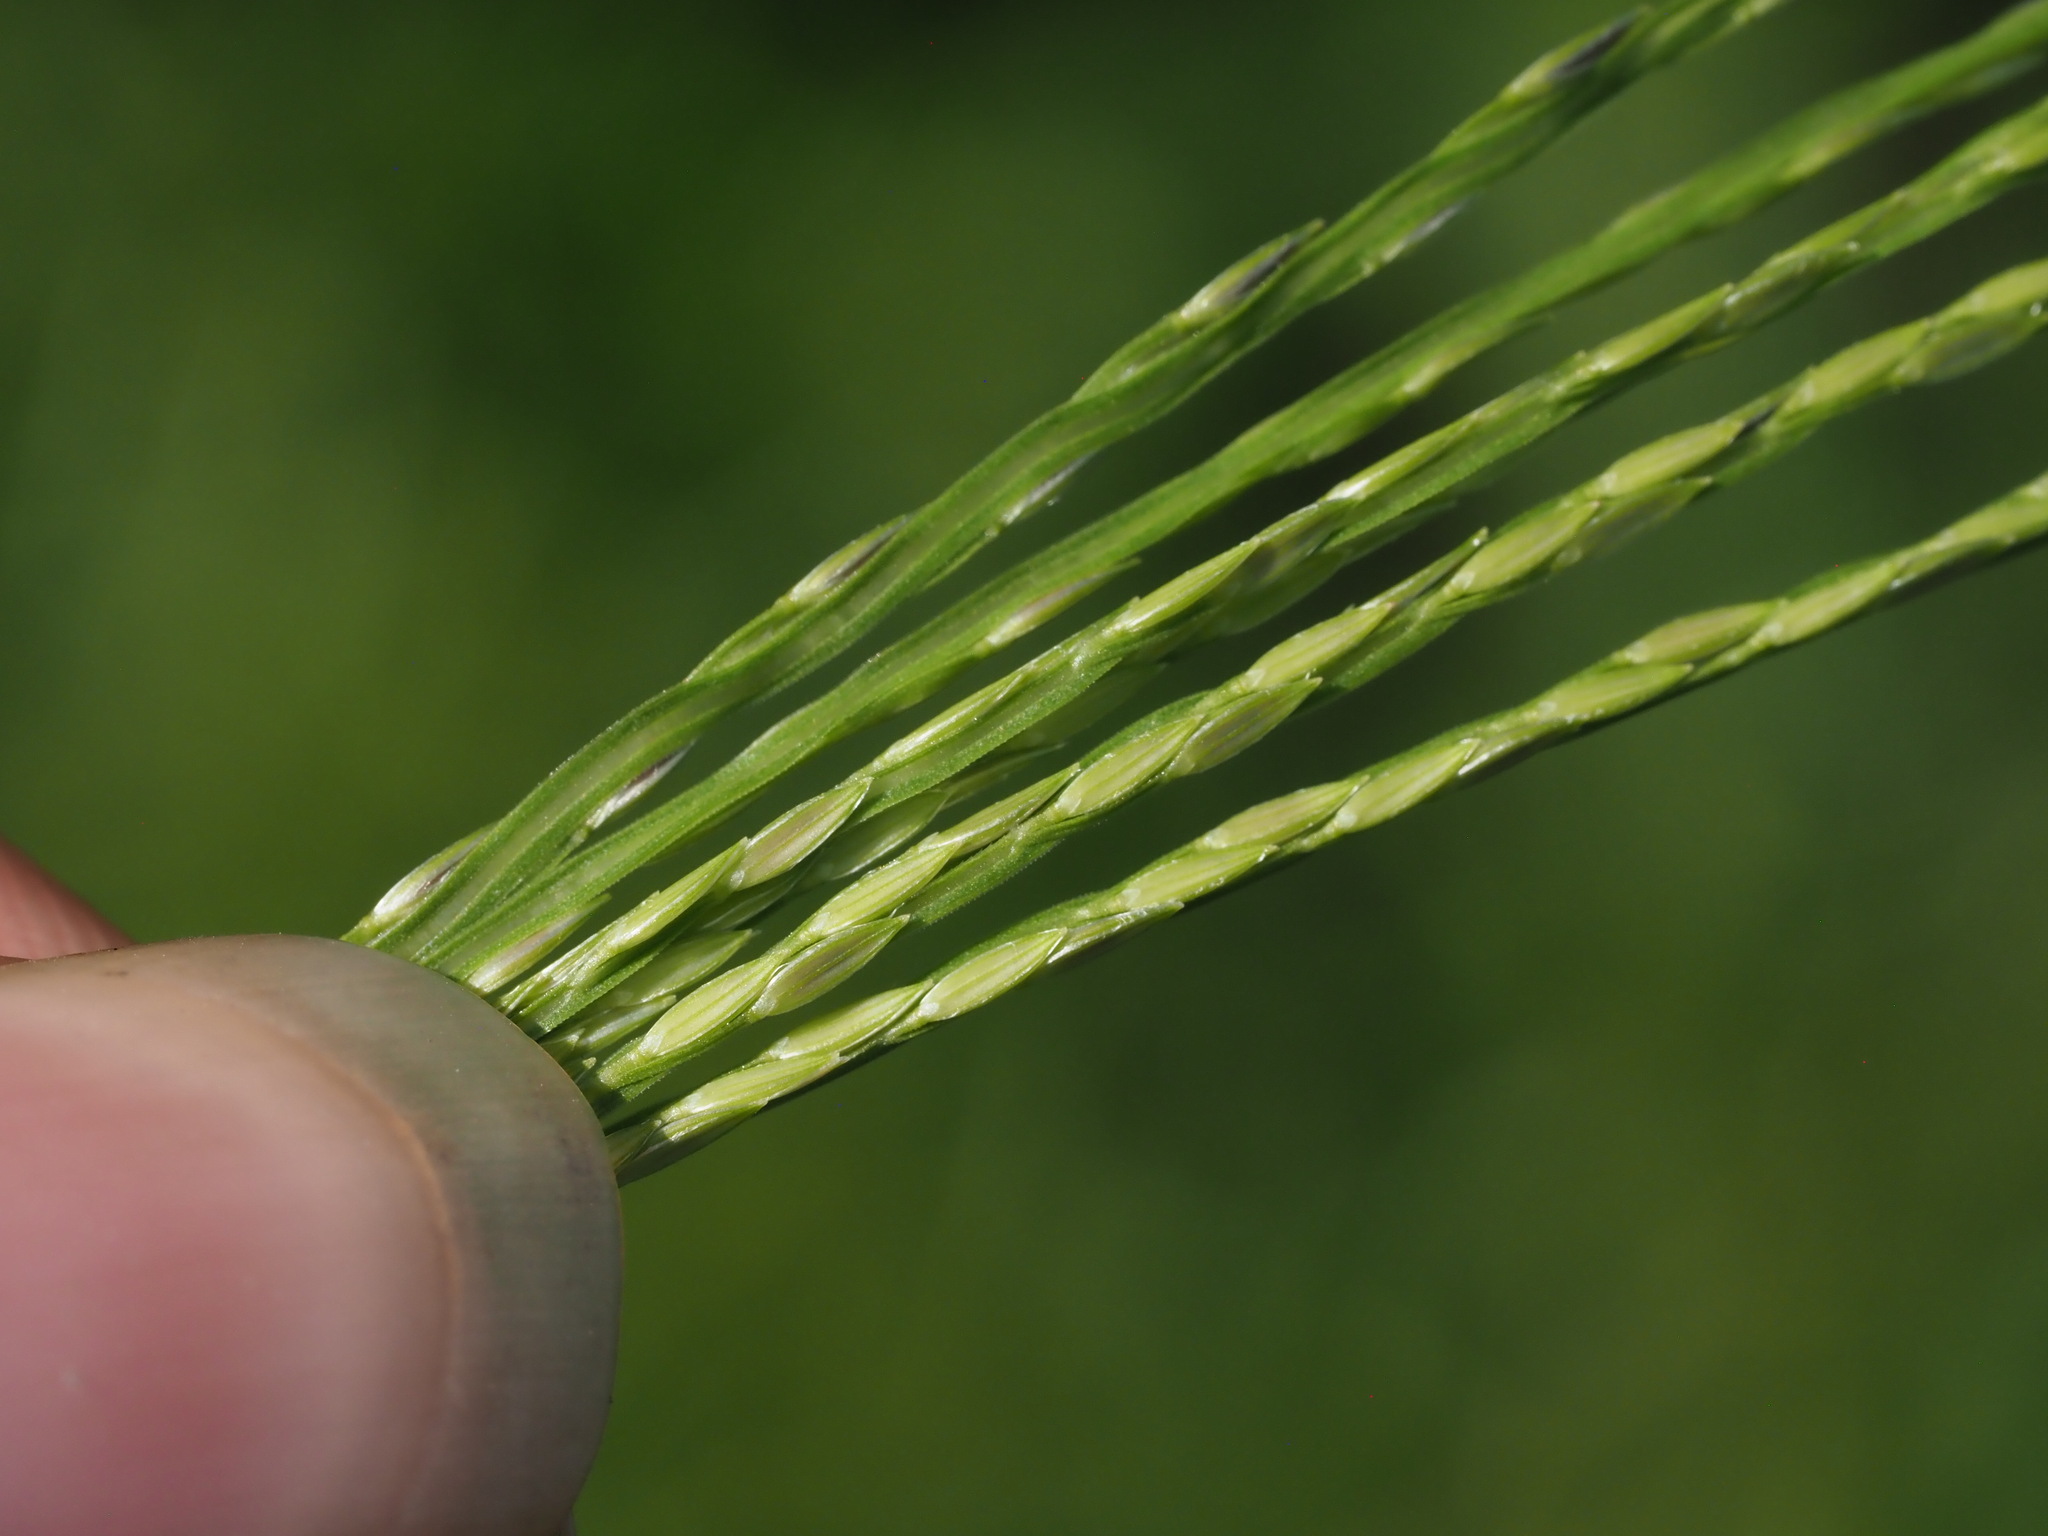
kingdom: Plantae
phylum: Tracheophyta
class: Liliopsida
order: Poales
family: Poaceae
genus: Digitaria
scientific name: Digitaria ciliaris
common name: Tropical finger-grass
